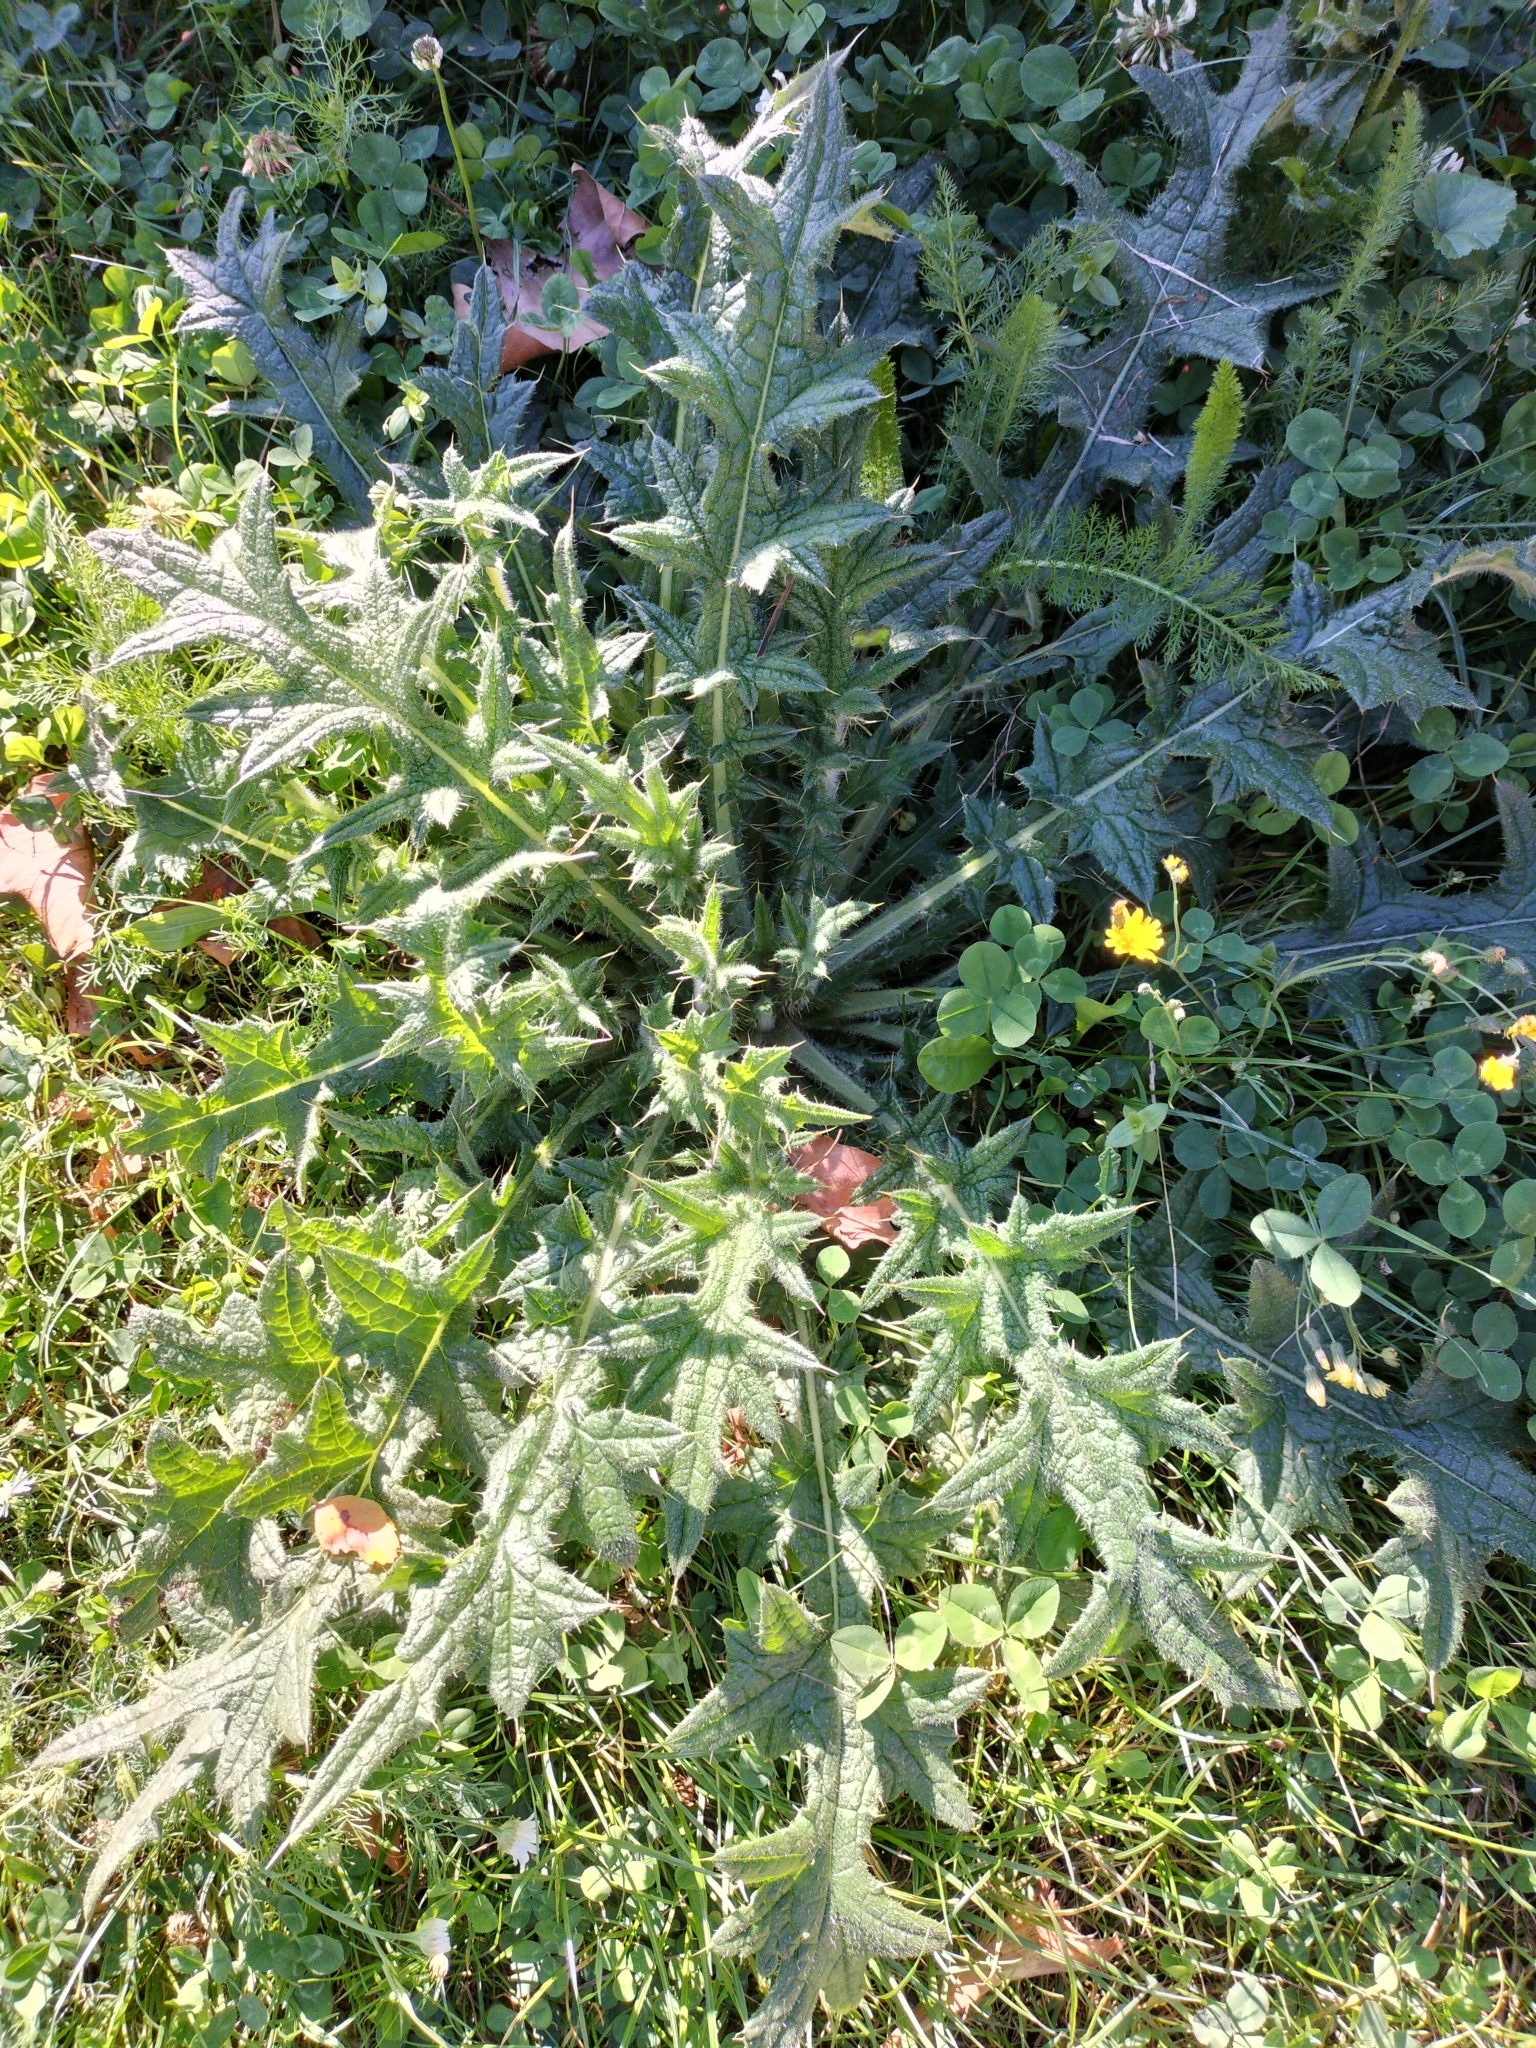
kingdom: Plantae
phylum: Tracheophyta
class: Magnoliopsida
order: Asterales
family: Asteraceae
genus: Cirsium
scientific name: Cirsium vulgare
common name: Bull thistle
